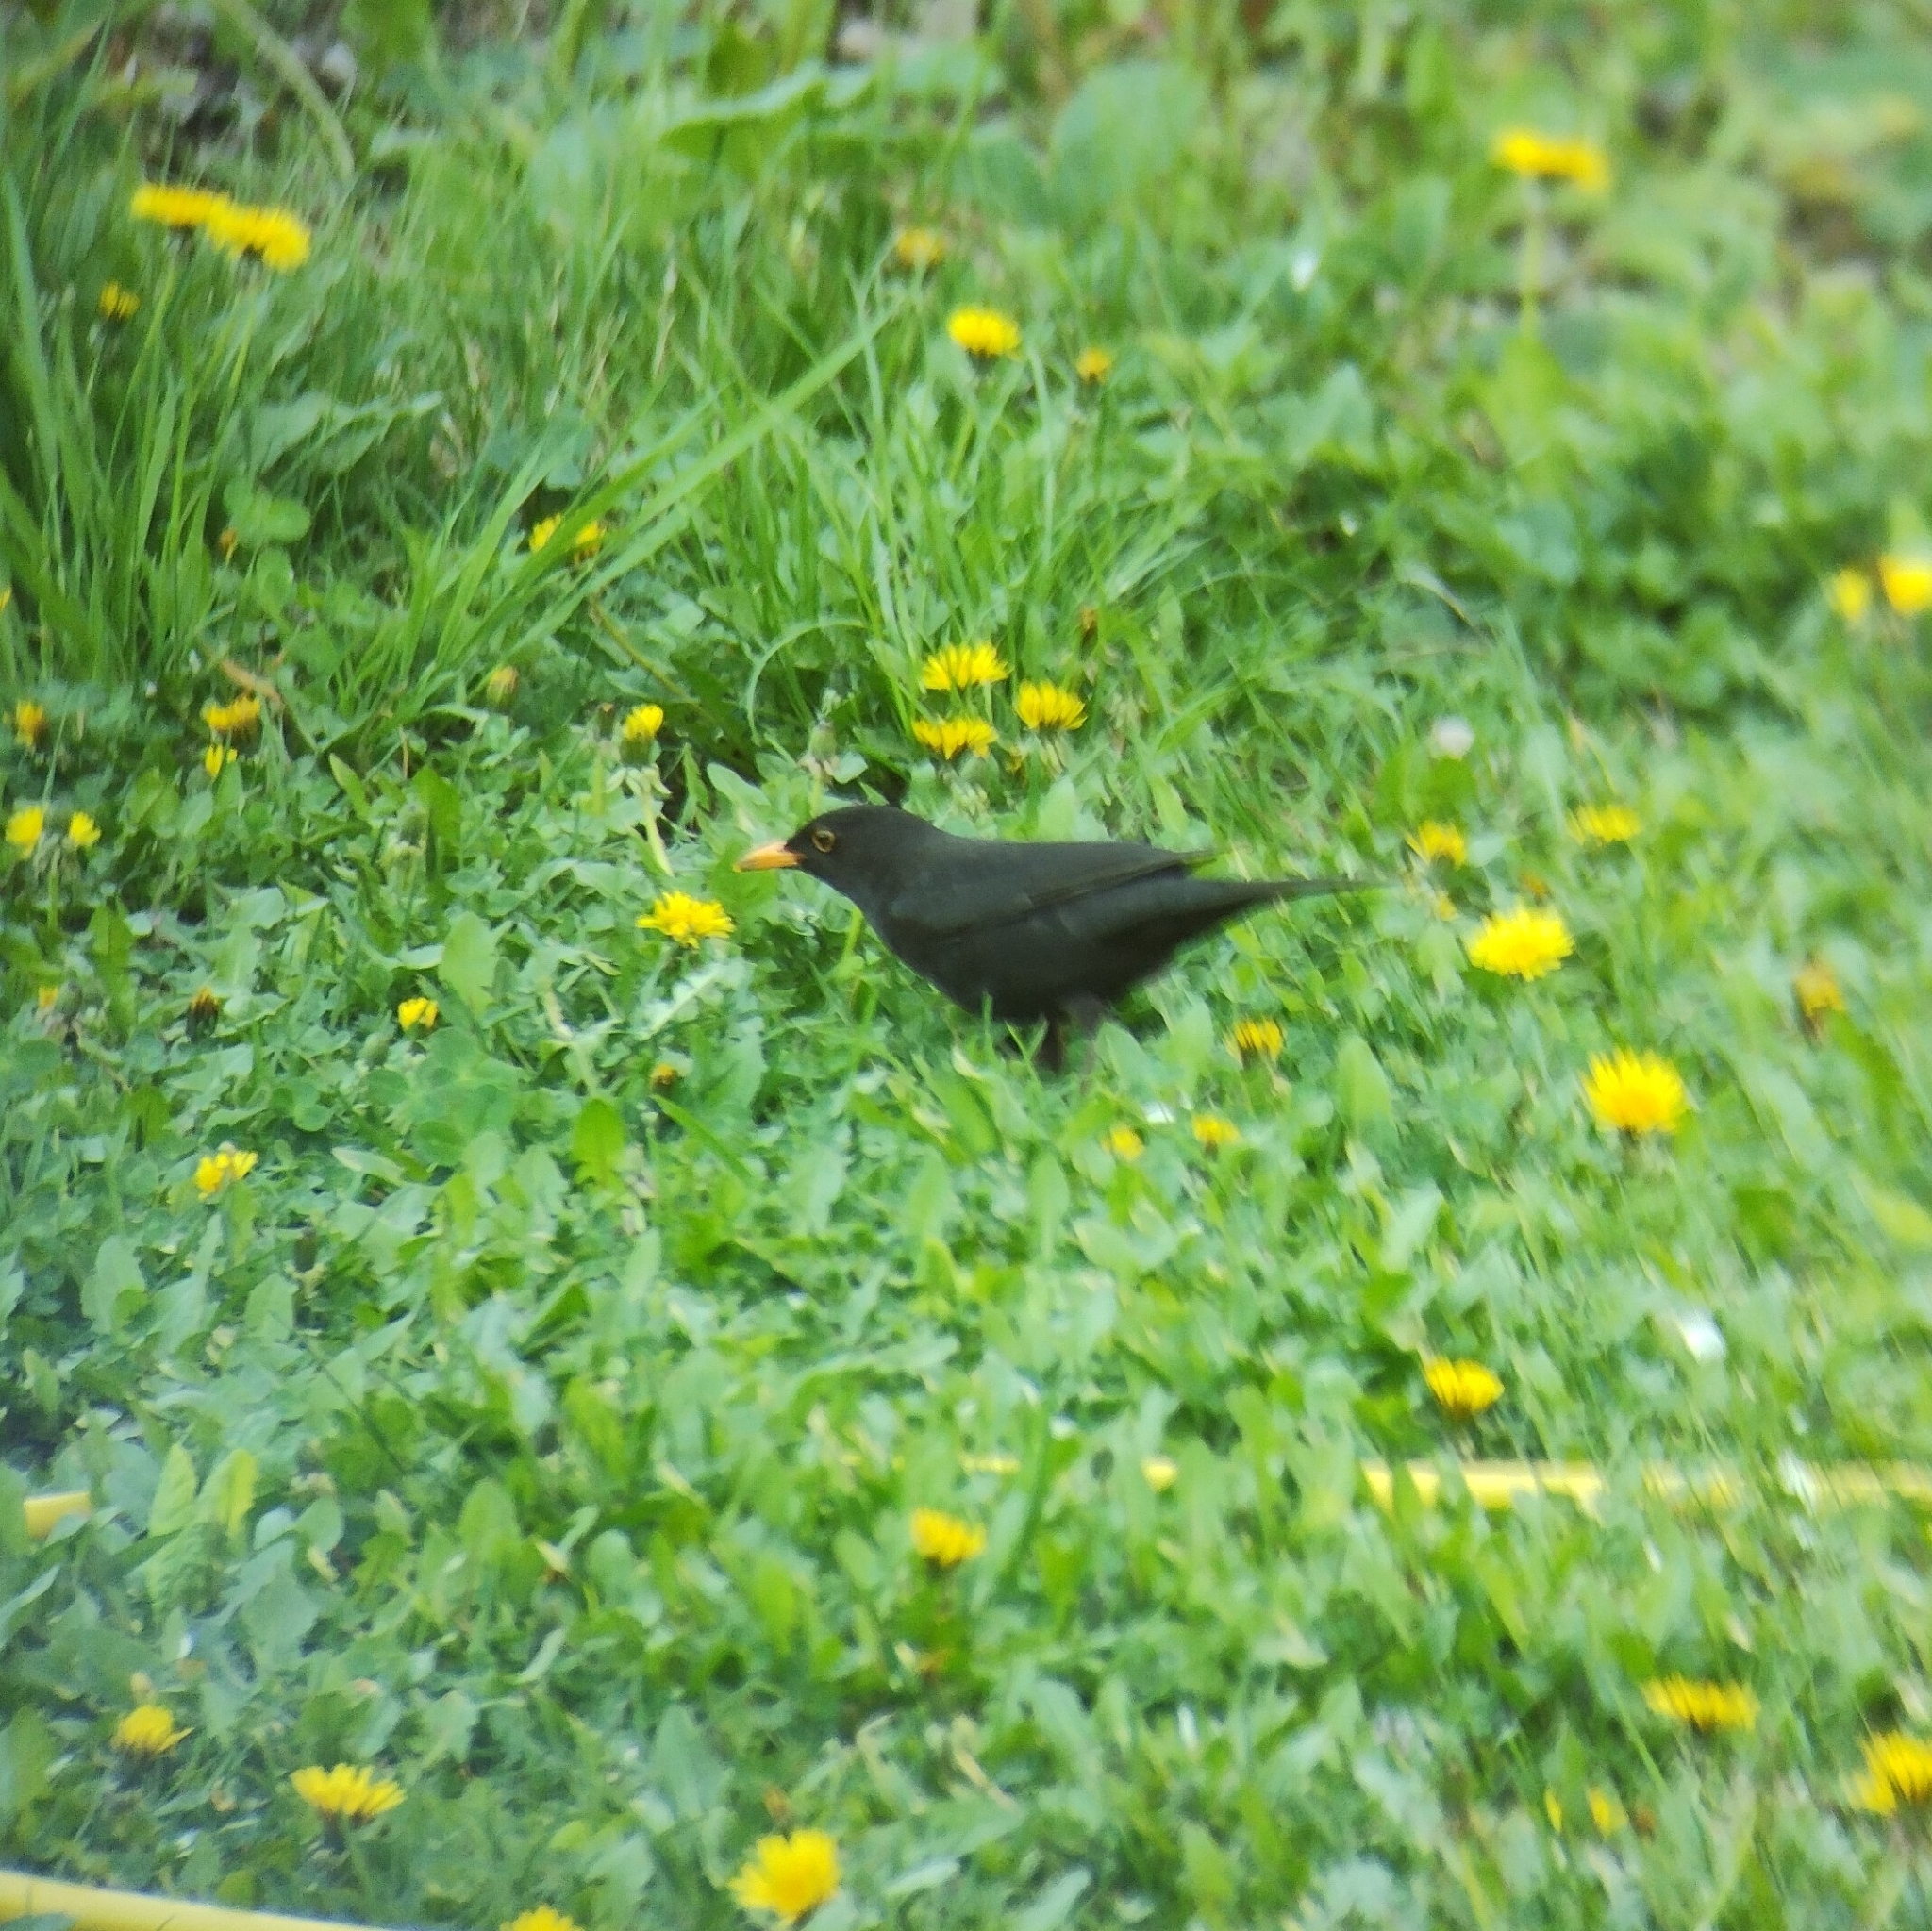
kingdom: Animalia
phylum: Chordata
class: Aves
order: Passeriformes
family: Turdidae
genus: Turdus
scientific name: Turdus merula
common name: Common blackbird
